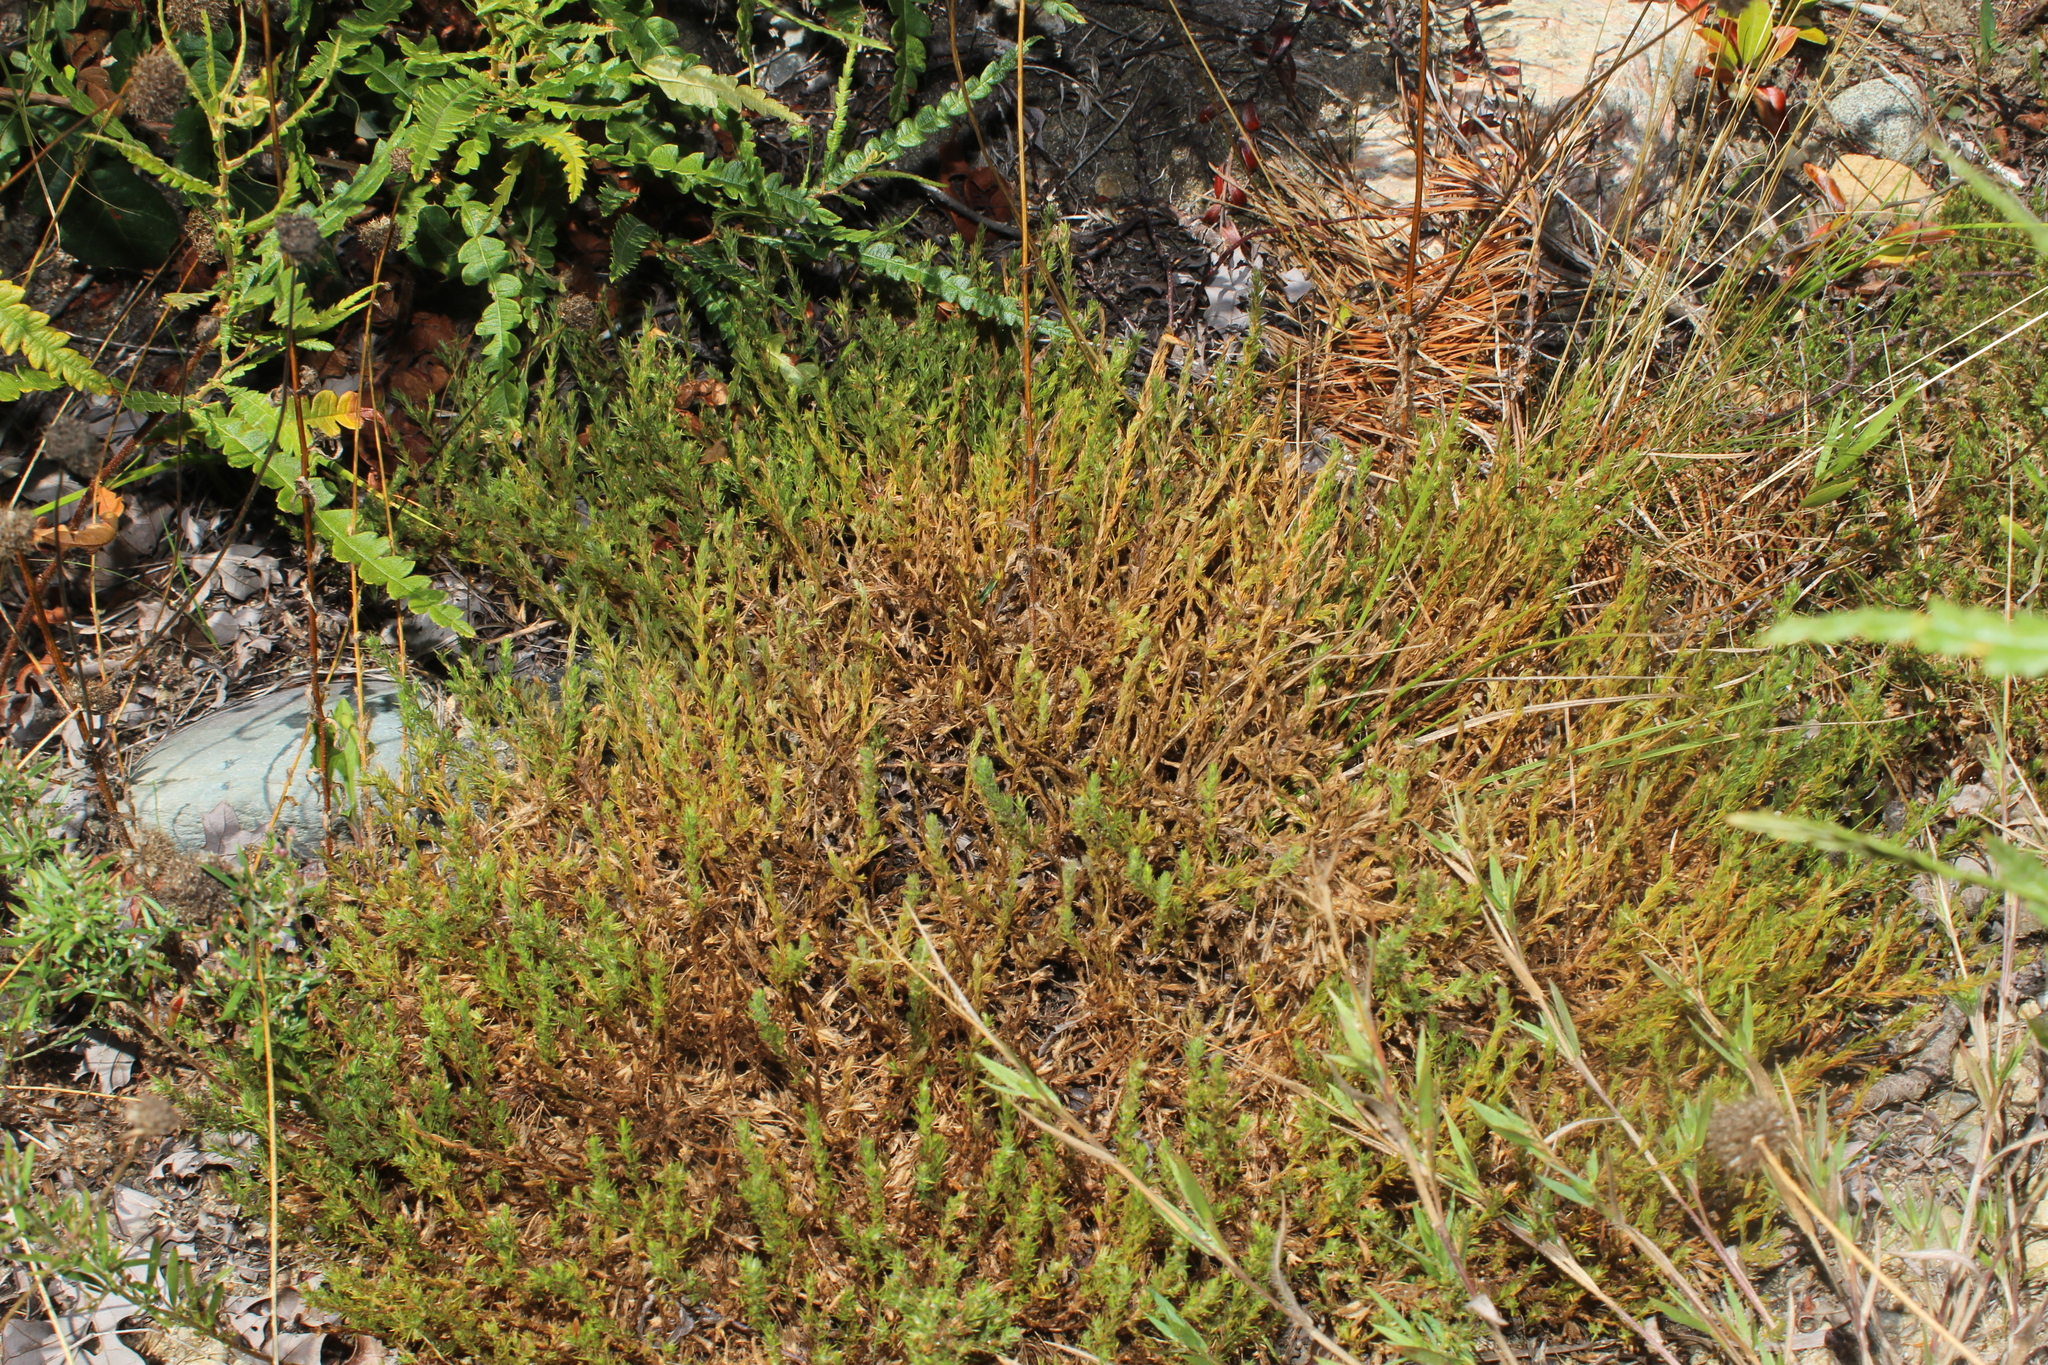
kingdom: Plantae
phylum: Tracheophyta
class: Magnoliopsida
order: Malvales
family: Cistaceae
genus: Hudsonia
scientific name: Hudsonia ericoides
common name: Golden-heather
